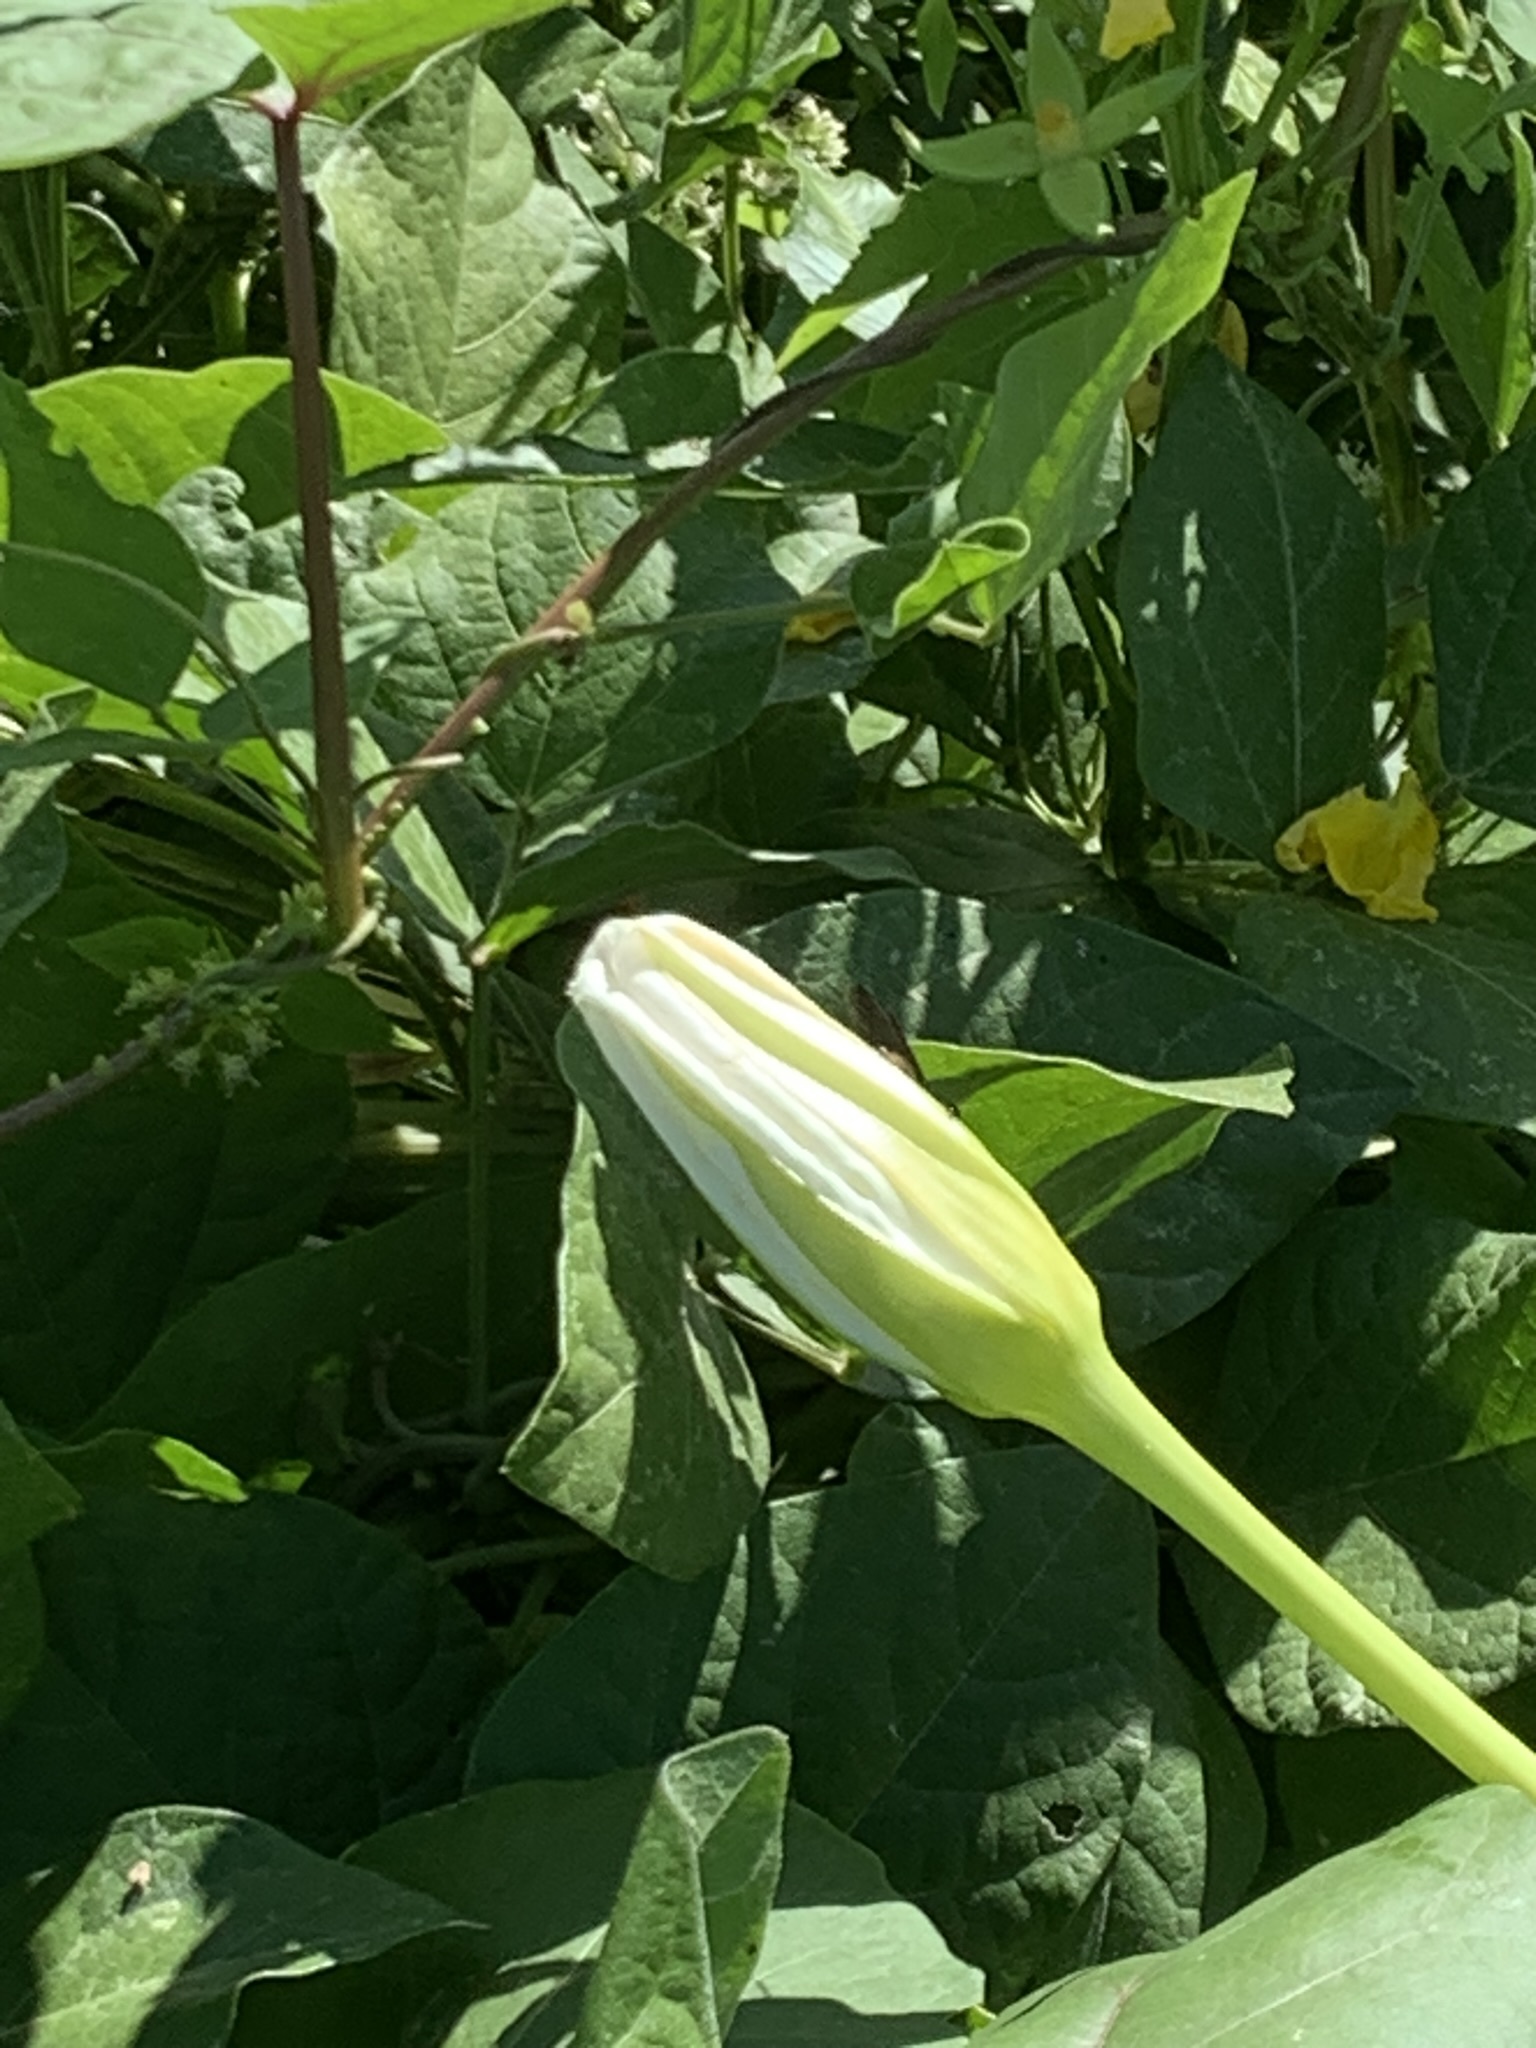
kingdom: Plantae
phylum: Tracheophyta
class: Magnoliopsida
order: Solanales
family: Convolvulaceae
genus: Ipomoea
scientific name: Ipomoea alba
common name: Moonflower
